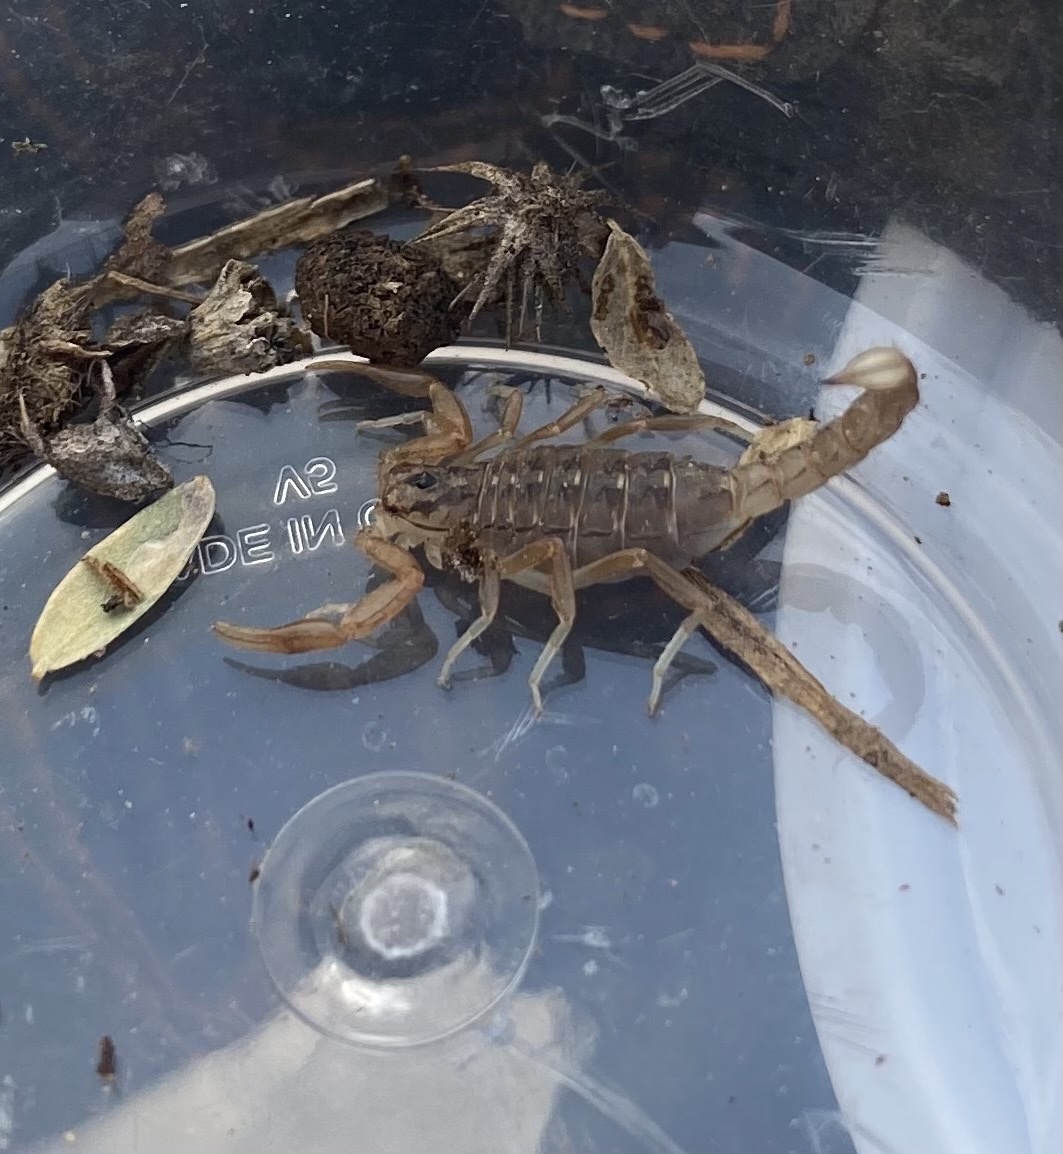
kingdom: Animalia
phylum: Arthropoda
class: Arachnida
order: Scorpiones
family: Vaejovidae
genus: Paravaejovis
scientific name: Paravaejovis spinigerus
